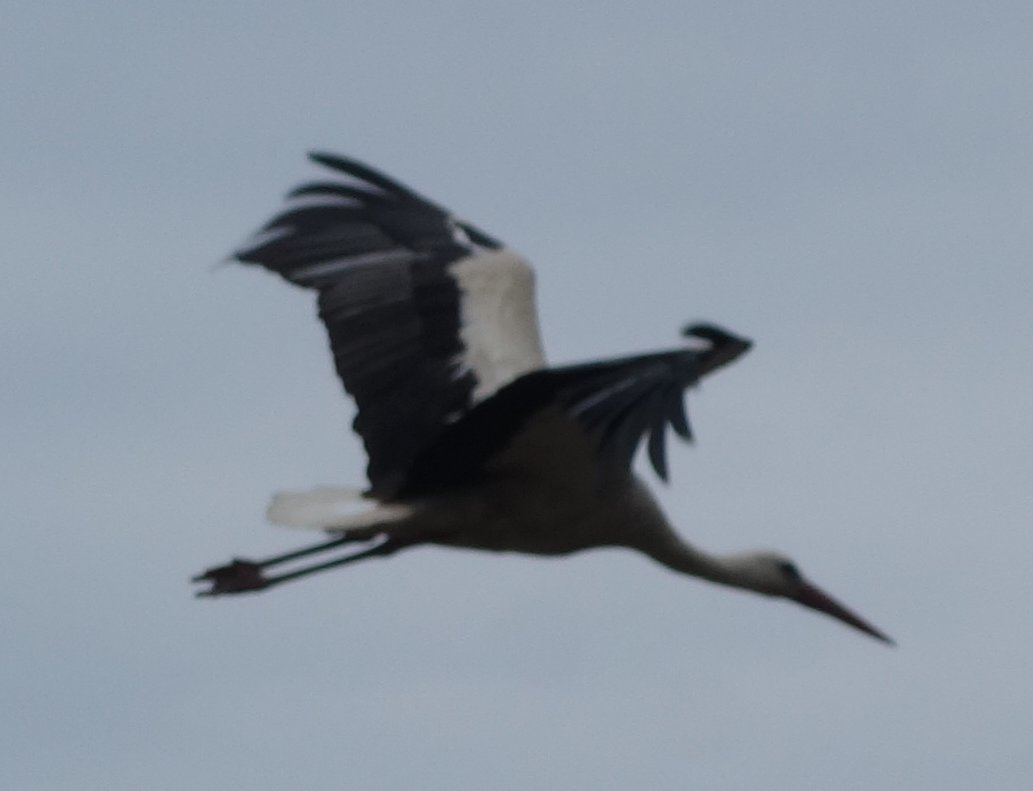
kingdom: Animalia
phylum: Chordata
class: Aves
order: Ciconiiformes
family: Ciconiidae
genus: Ciconia
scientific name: Ciconia ciconia
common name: White stork
